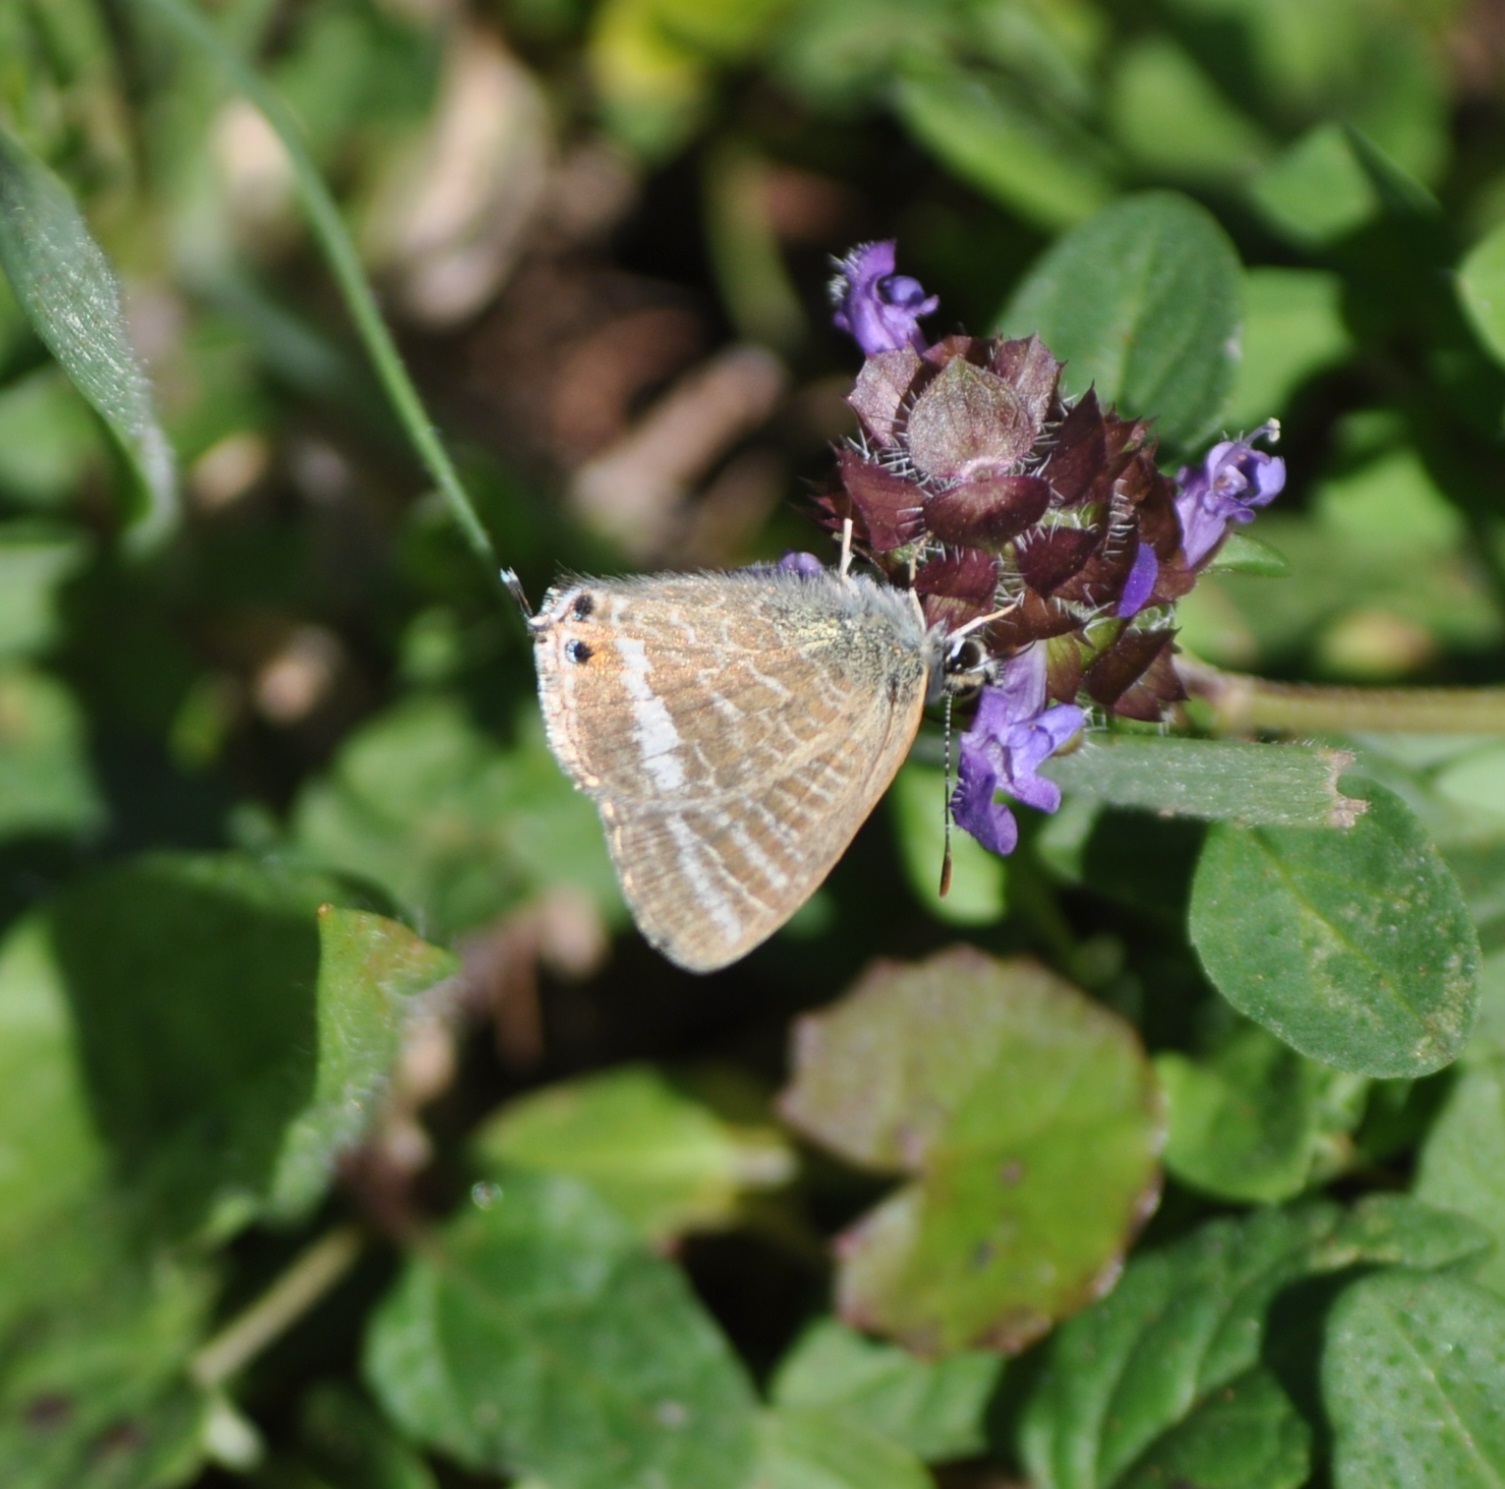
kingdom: Animalia
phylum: Arthropoda
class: Insecta
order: Lepidoptera
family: Lycaenidae
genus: Lampides
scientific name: Lampides boeticus
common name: Long-tailed blue
